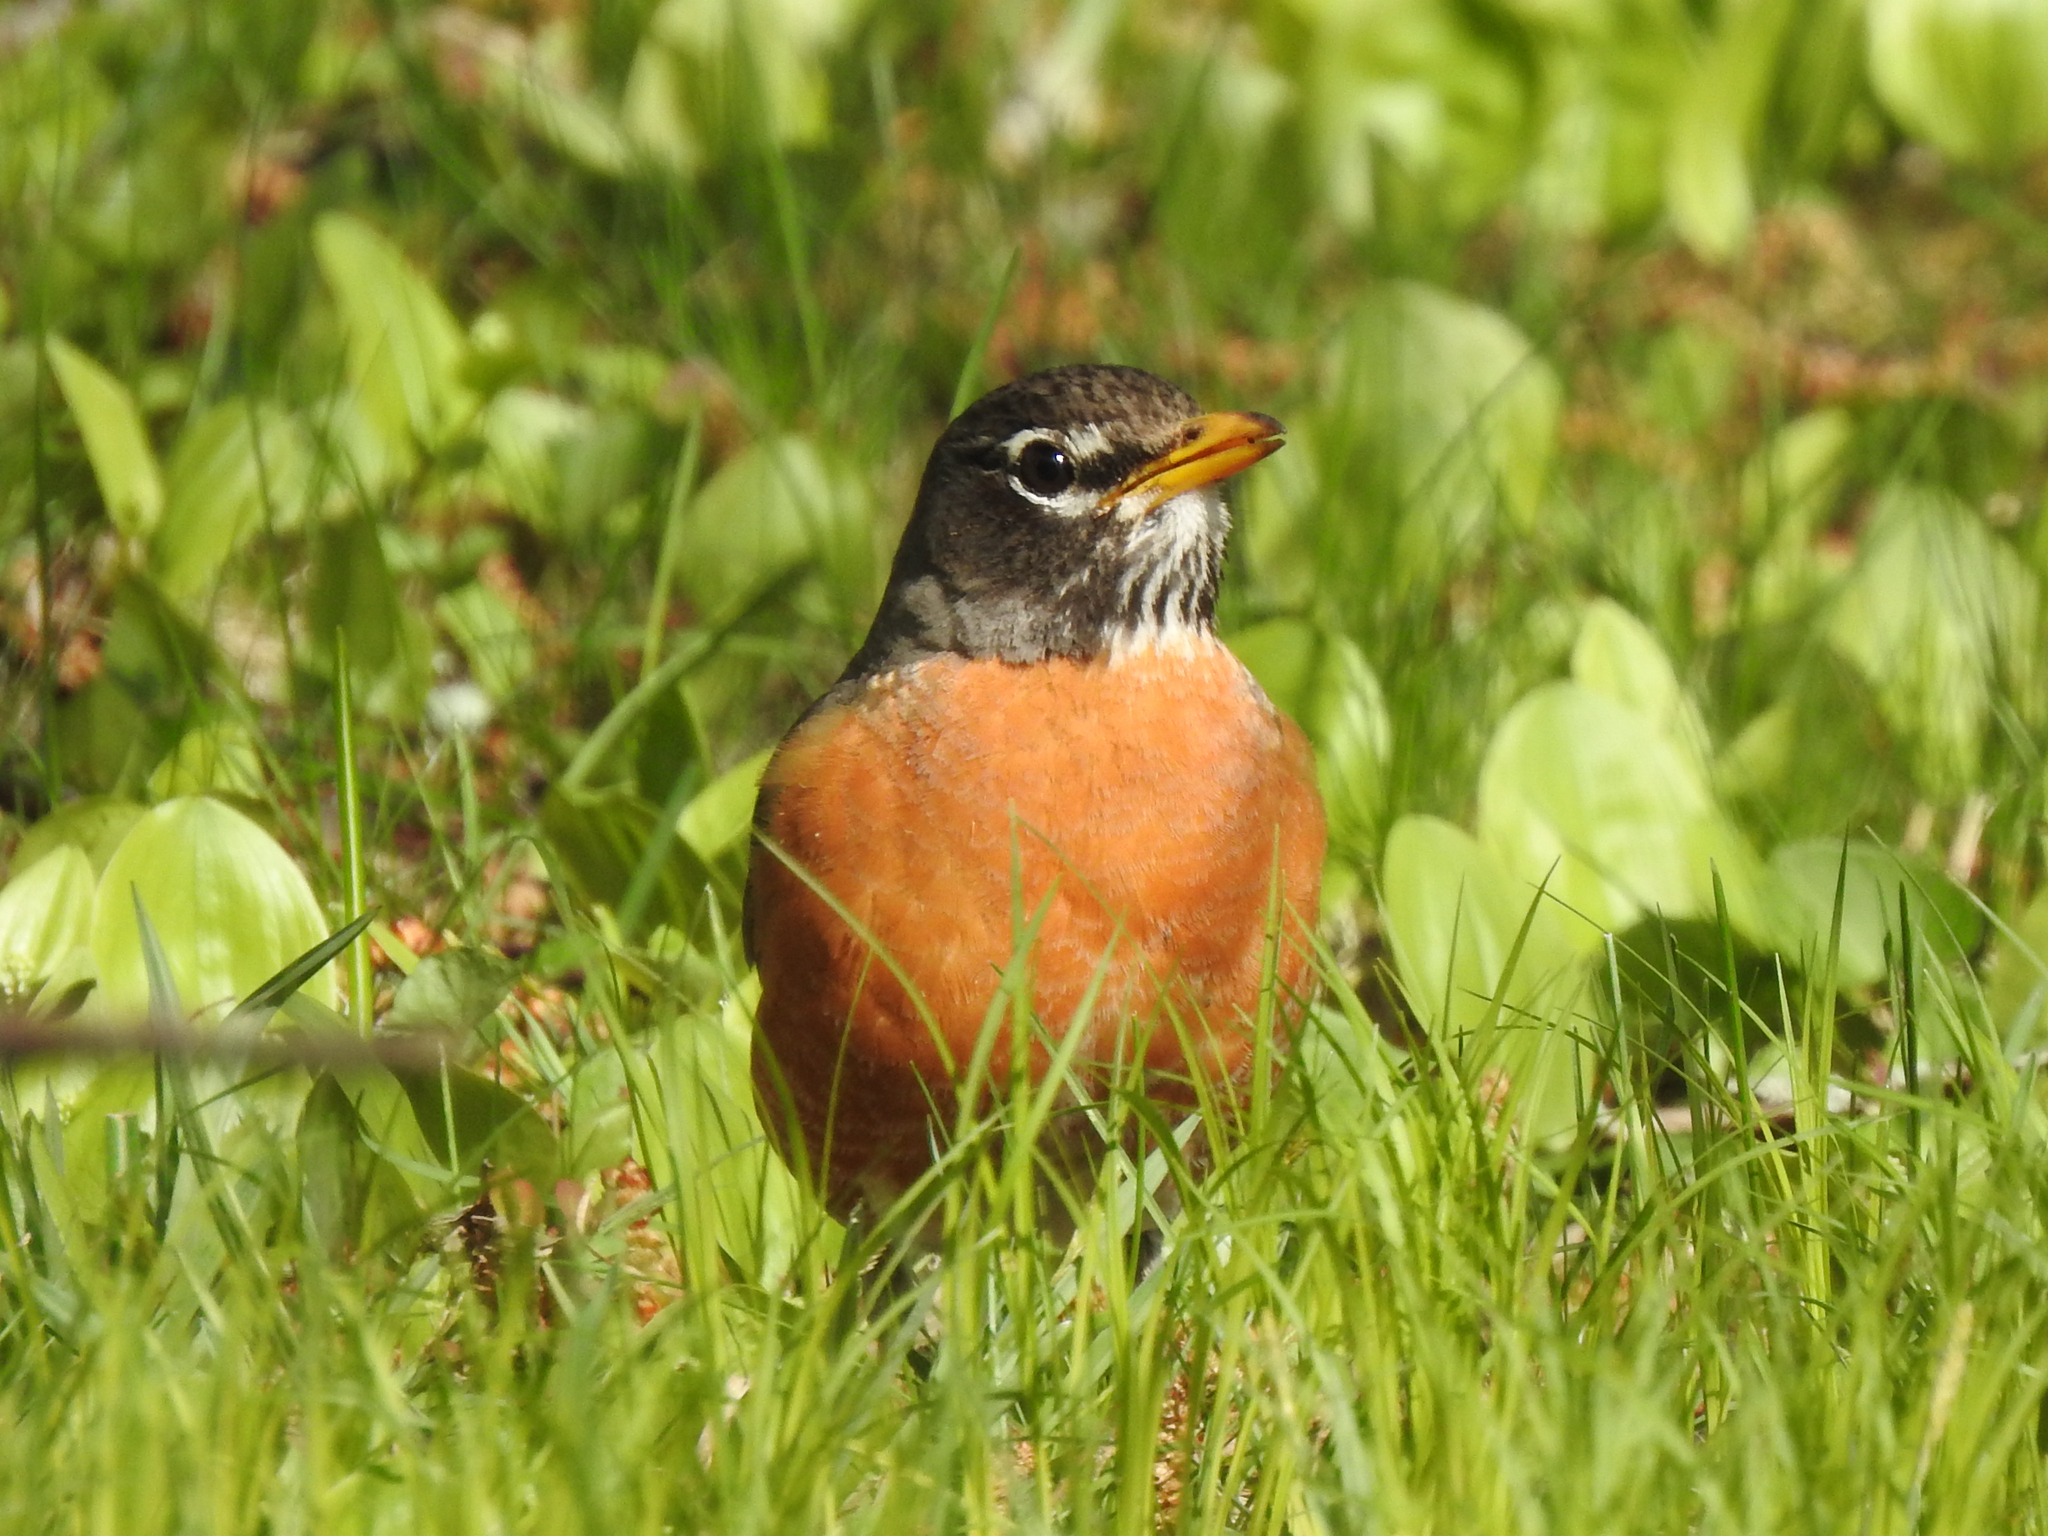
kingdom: Animalia
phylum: Chordata
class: Aves
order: Passeriformes
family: Turdidae
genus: Turdus
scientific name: Turdus migratorius
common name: American robin
